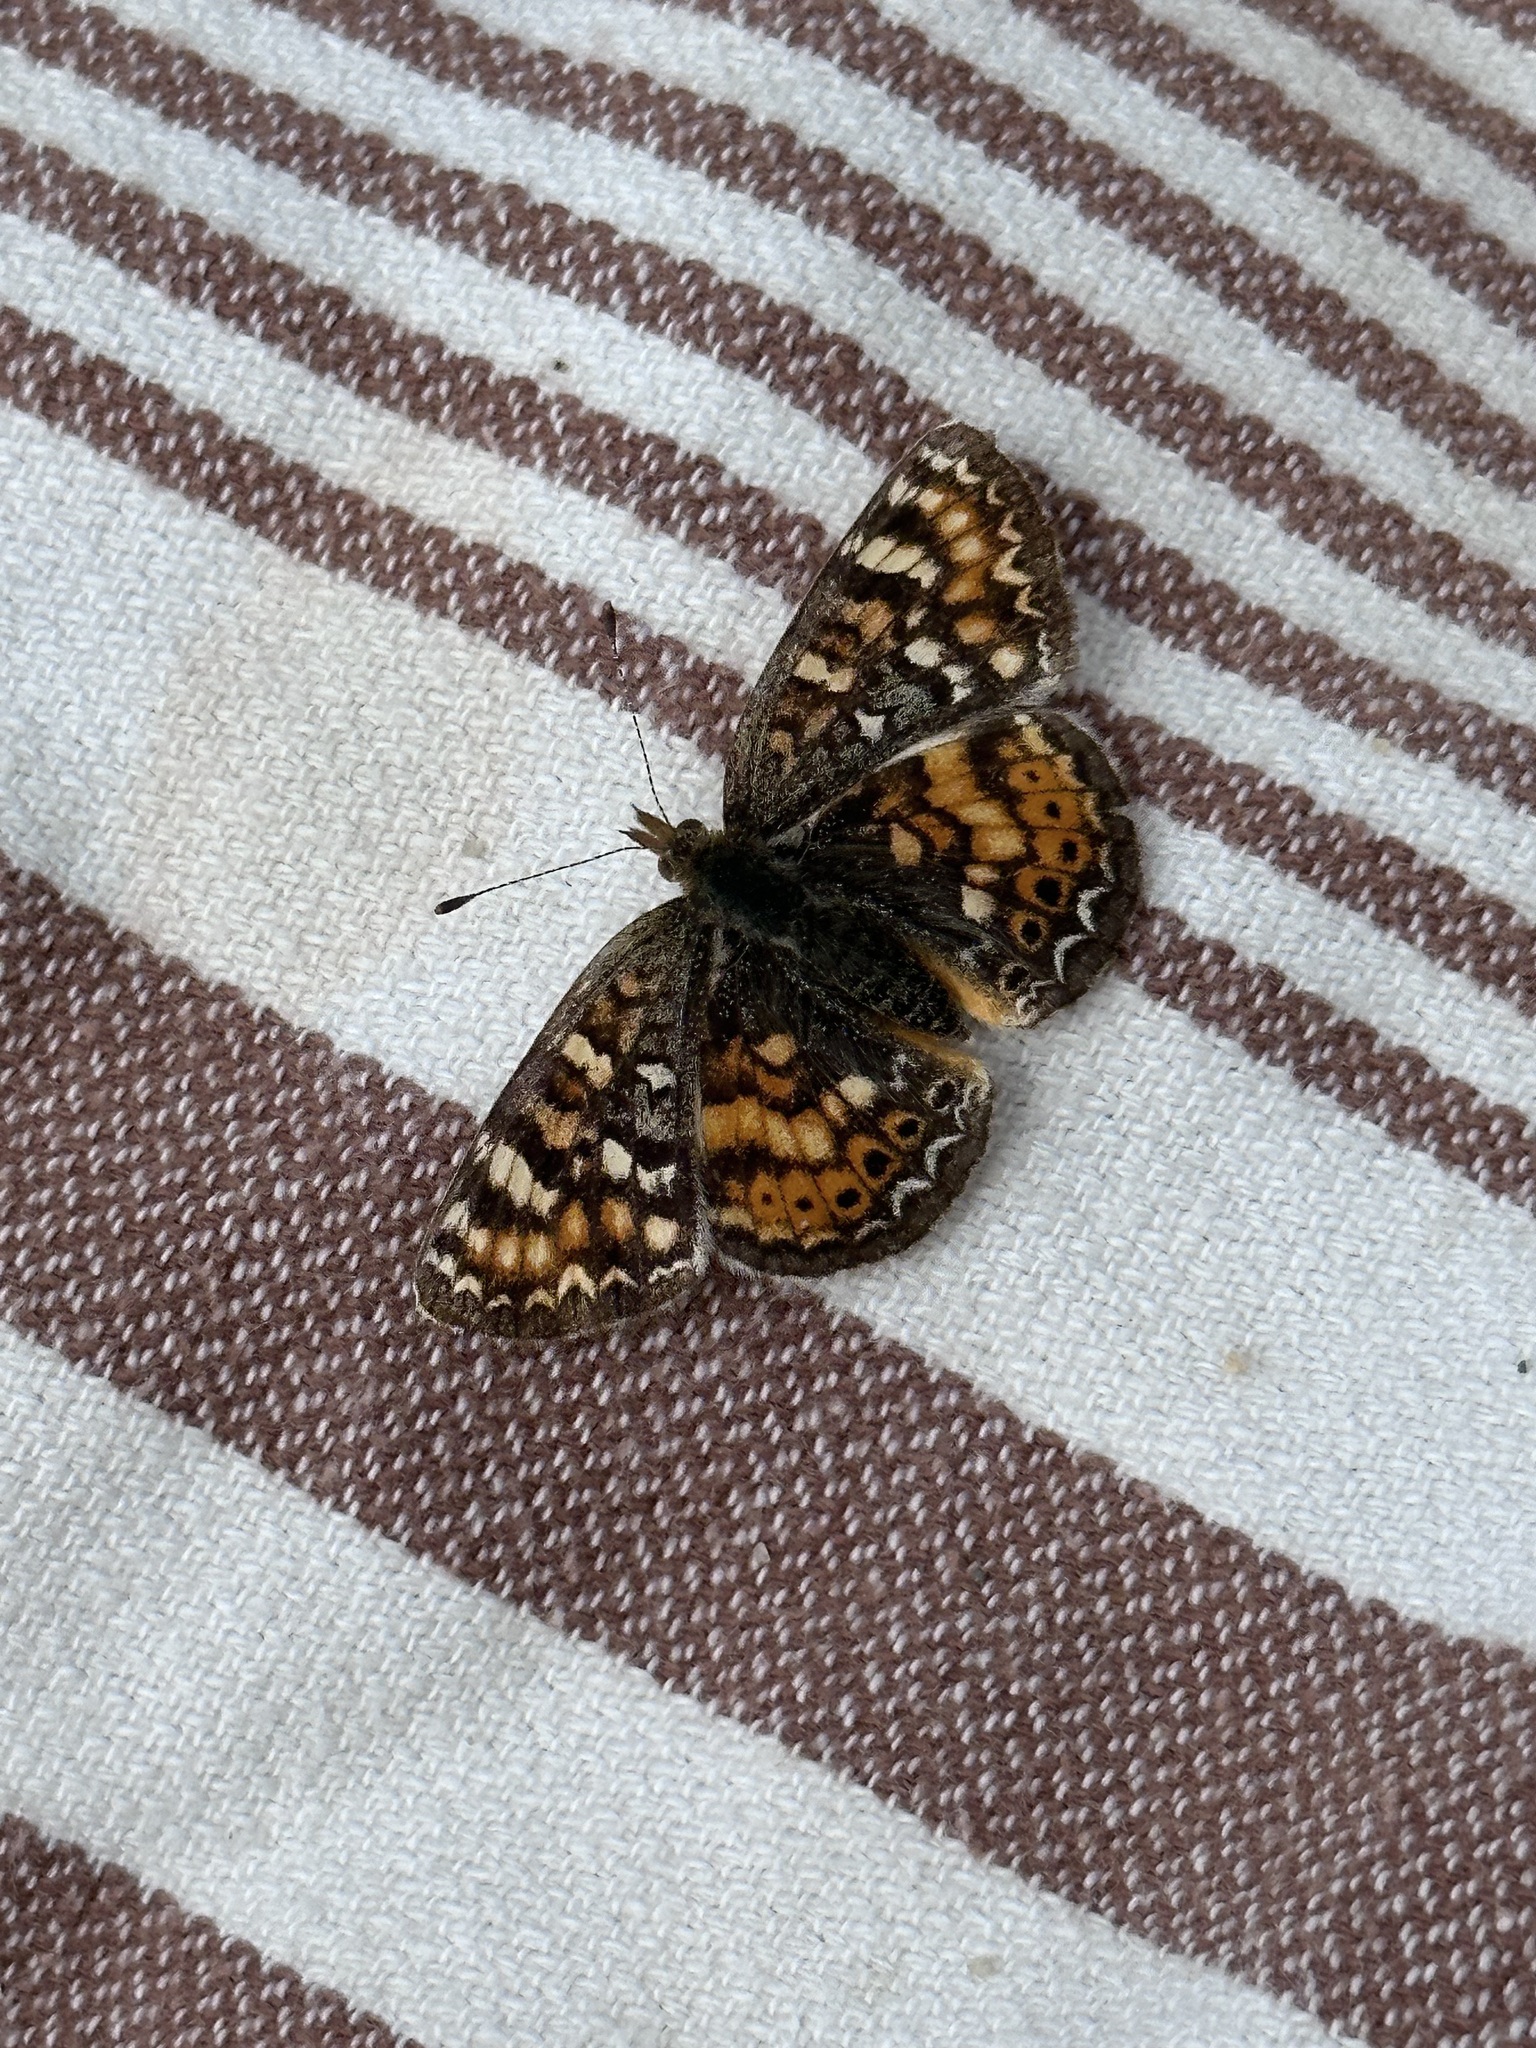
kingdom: Animalia
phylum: Arthropoda
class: Insecta
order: Lepidoptera
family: Nymphalidae
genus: Phyciodes
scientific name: Phyciodes tharos
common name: Pearl crescent
